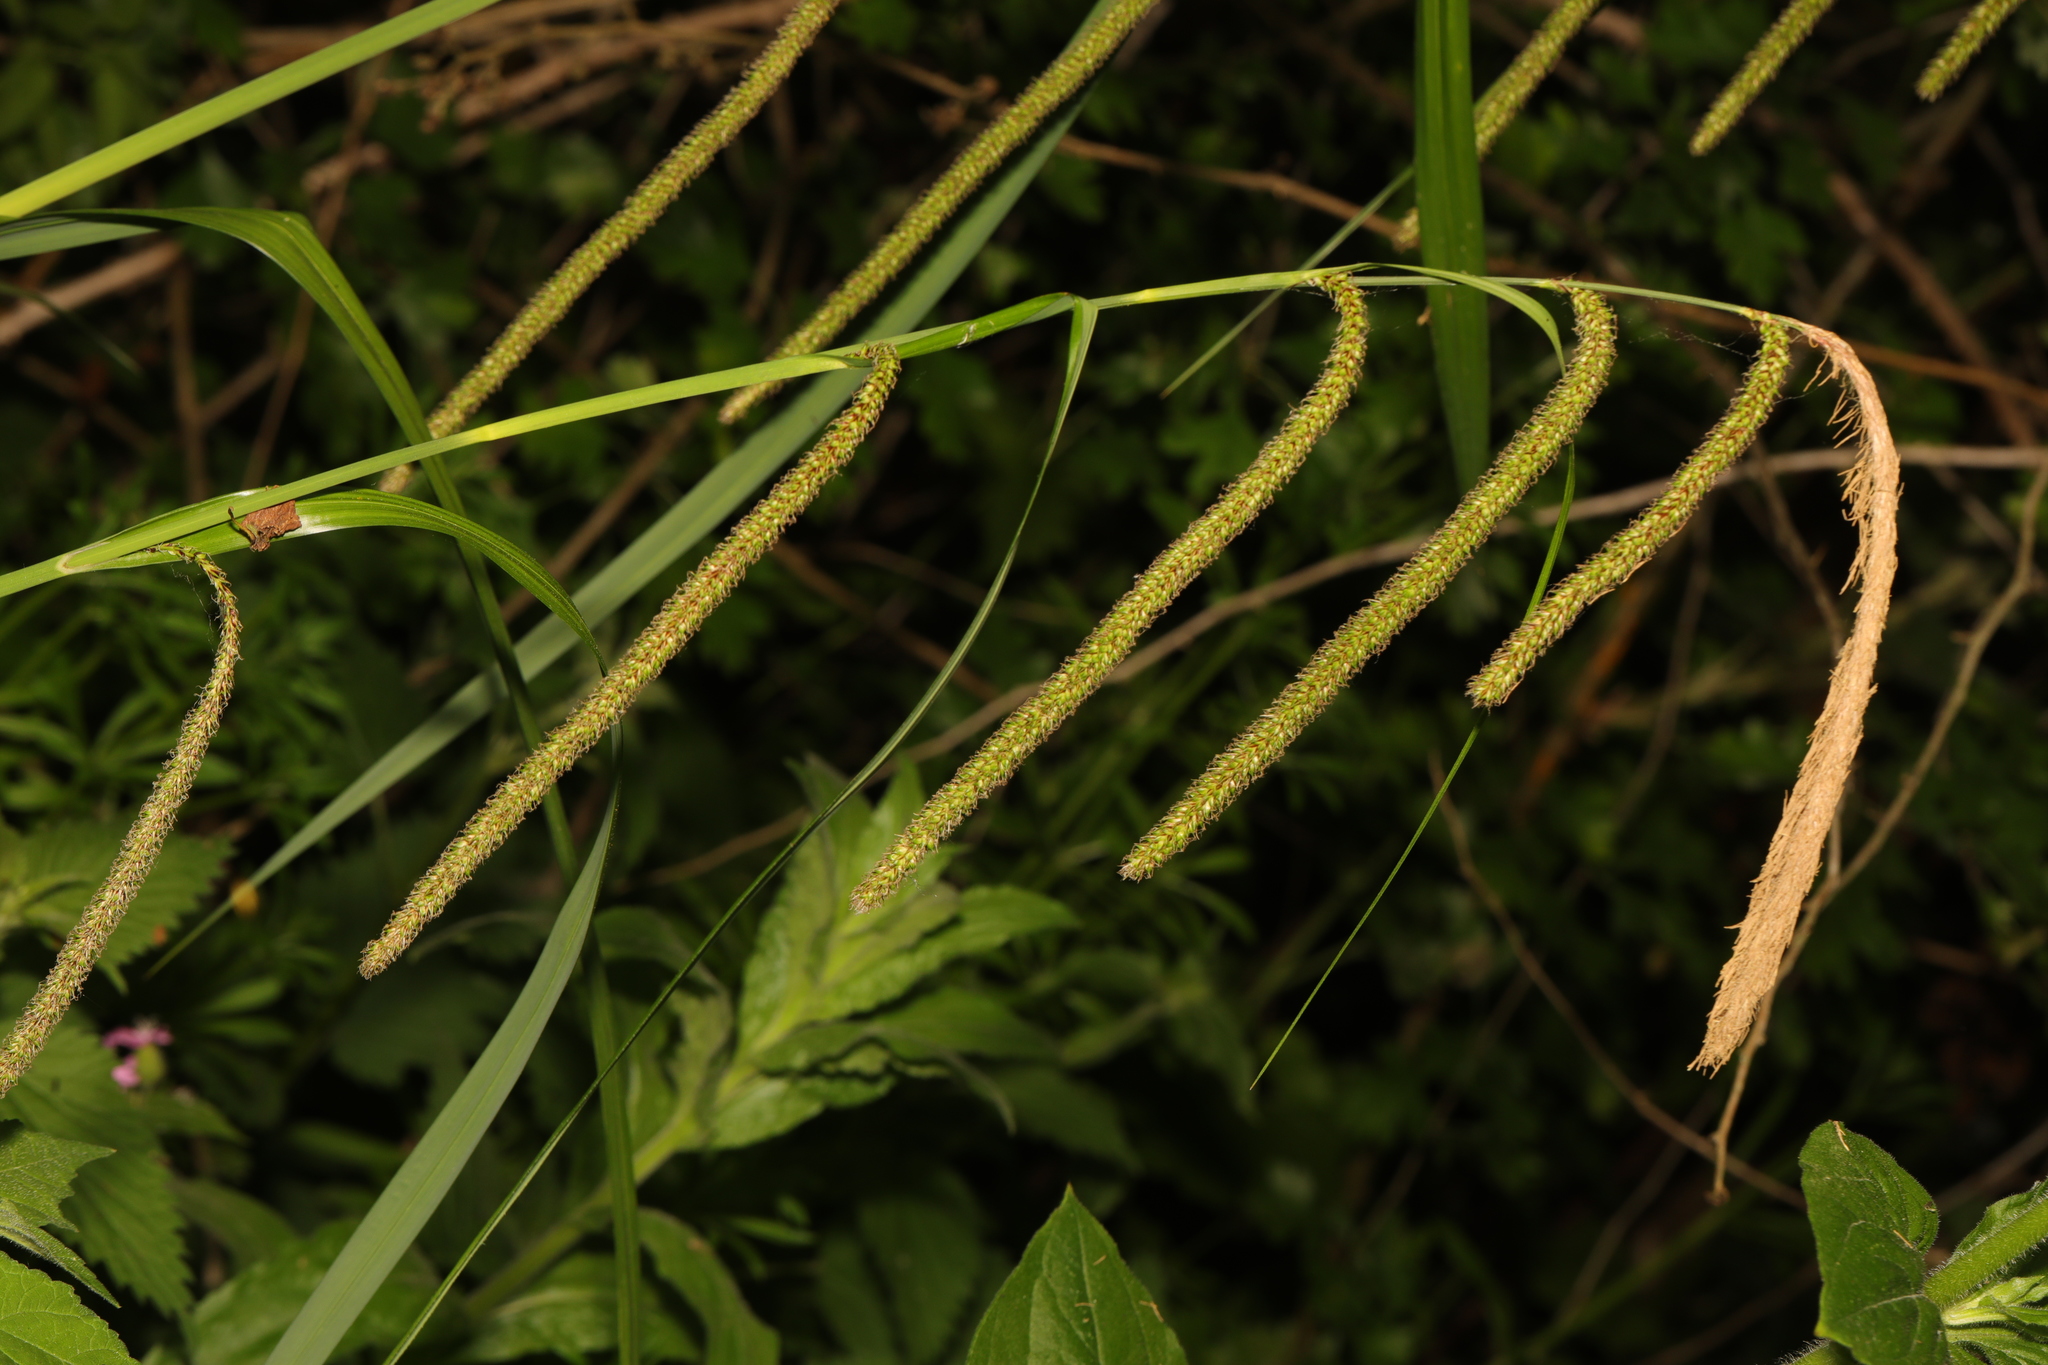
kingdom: Plantae
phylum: Tracheophyta
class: Liliopsida
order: Poales
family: Cyperaceae
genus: Carex
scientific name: Carex pendula
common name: Pendulous sedge
